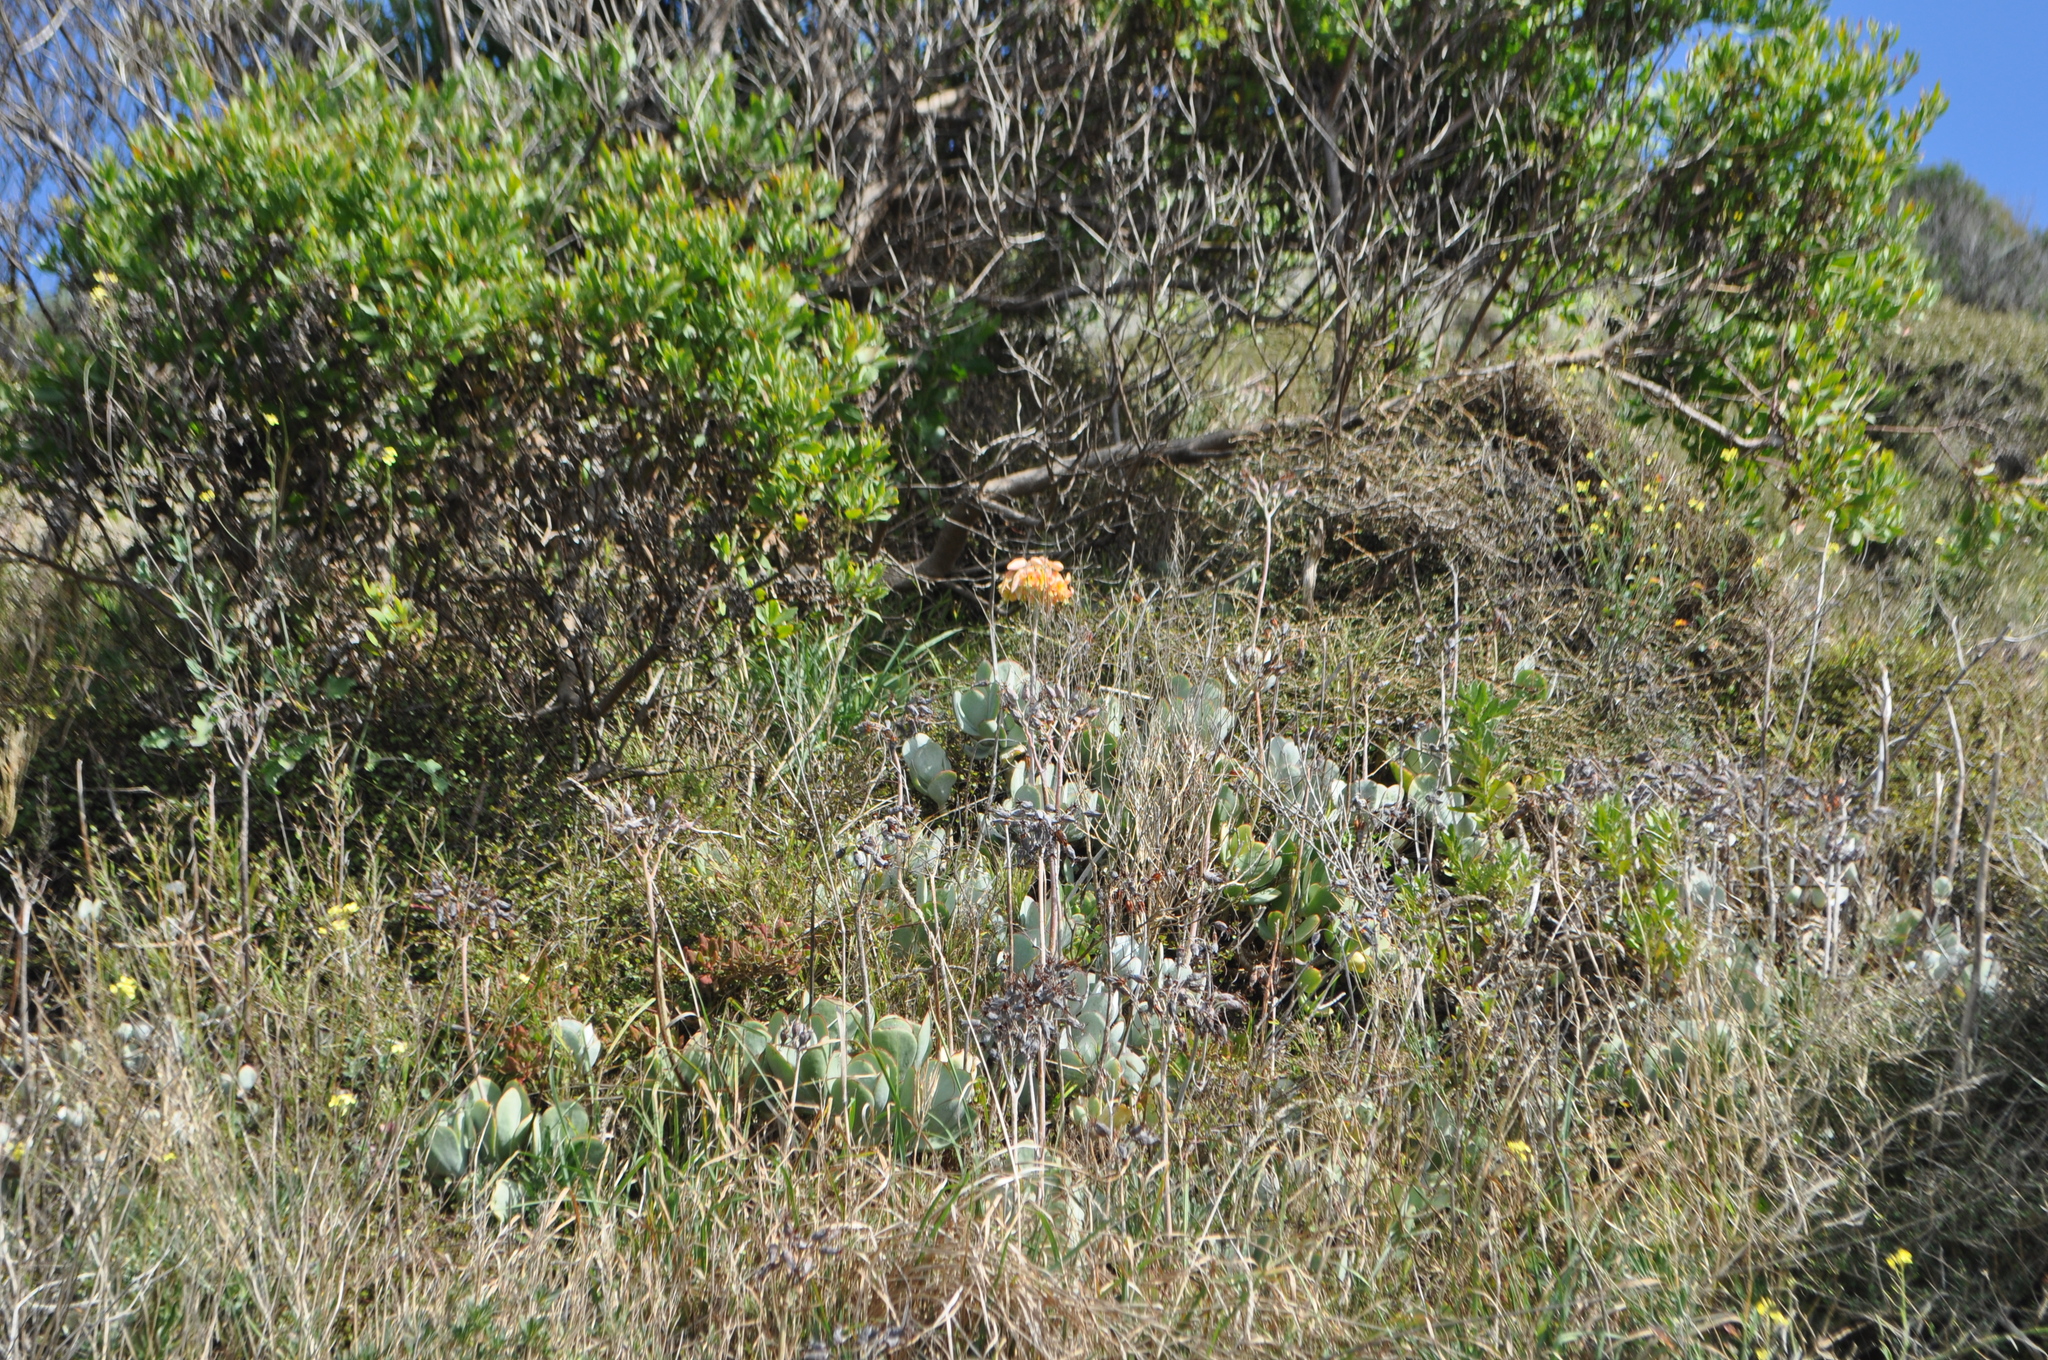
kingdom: Plantae
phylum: Tracheophyta
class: Magnoliopsida
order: Saxifragales
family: Crassulaceae
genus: Cotyledon
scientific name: Cotyledon orbiculata
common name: Pig's ear
